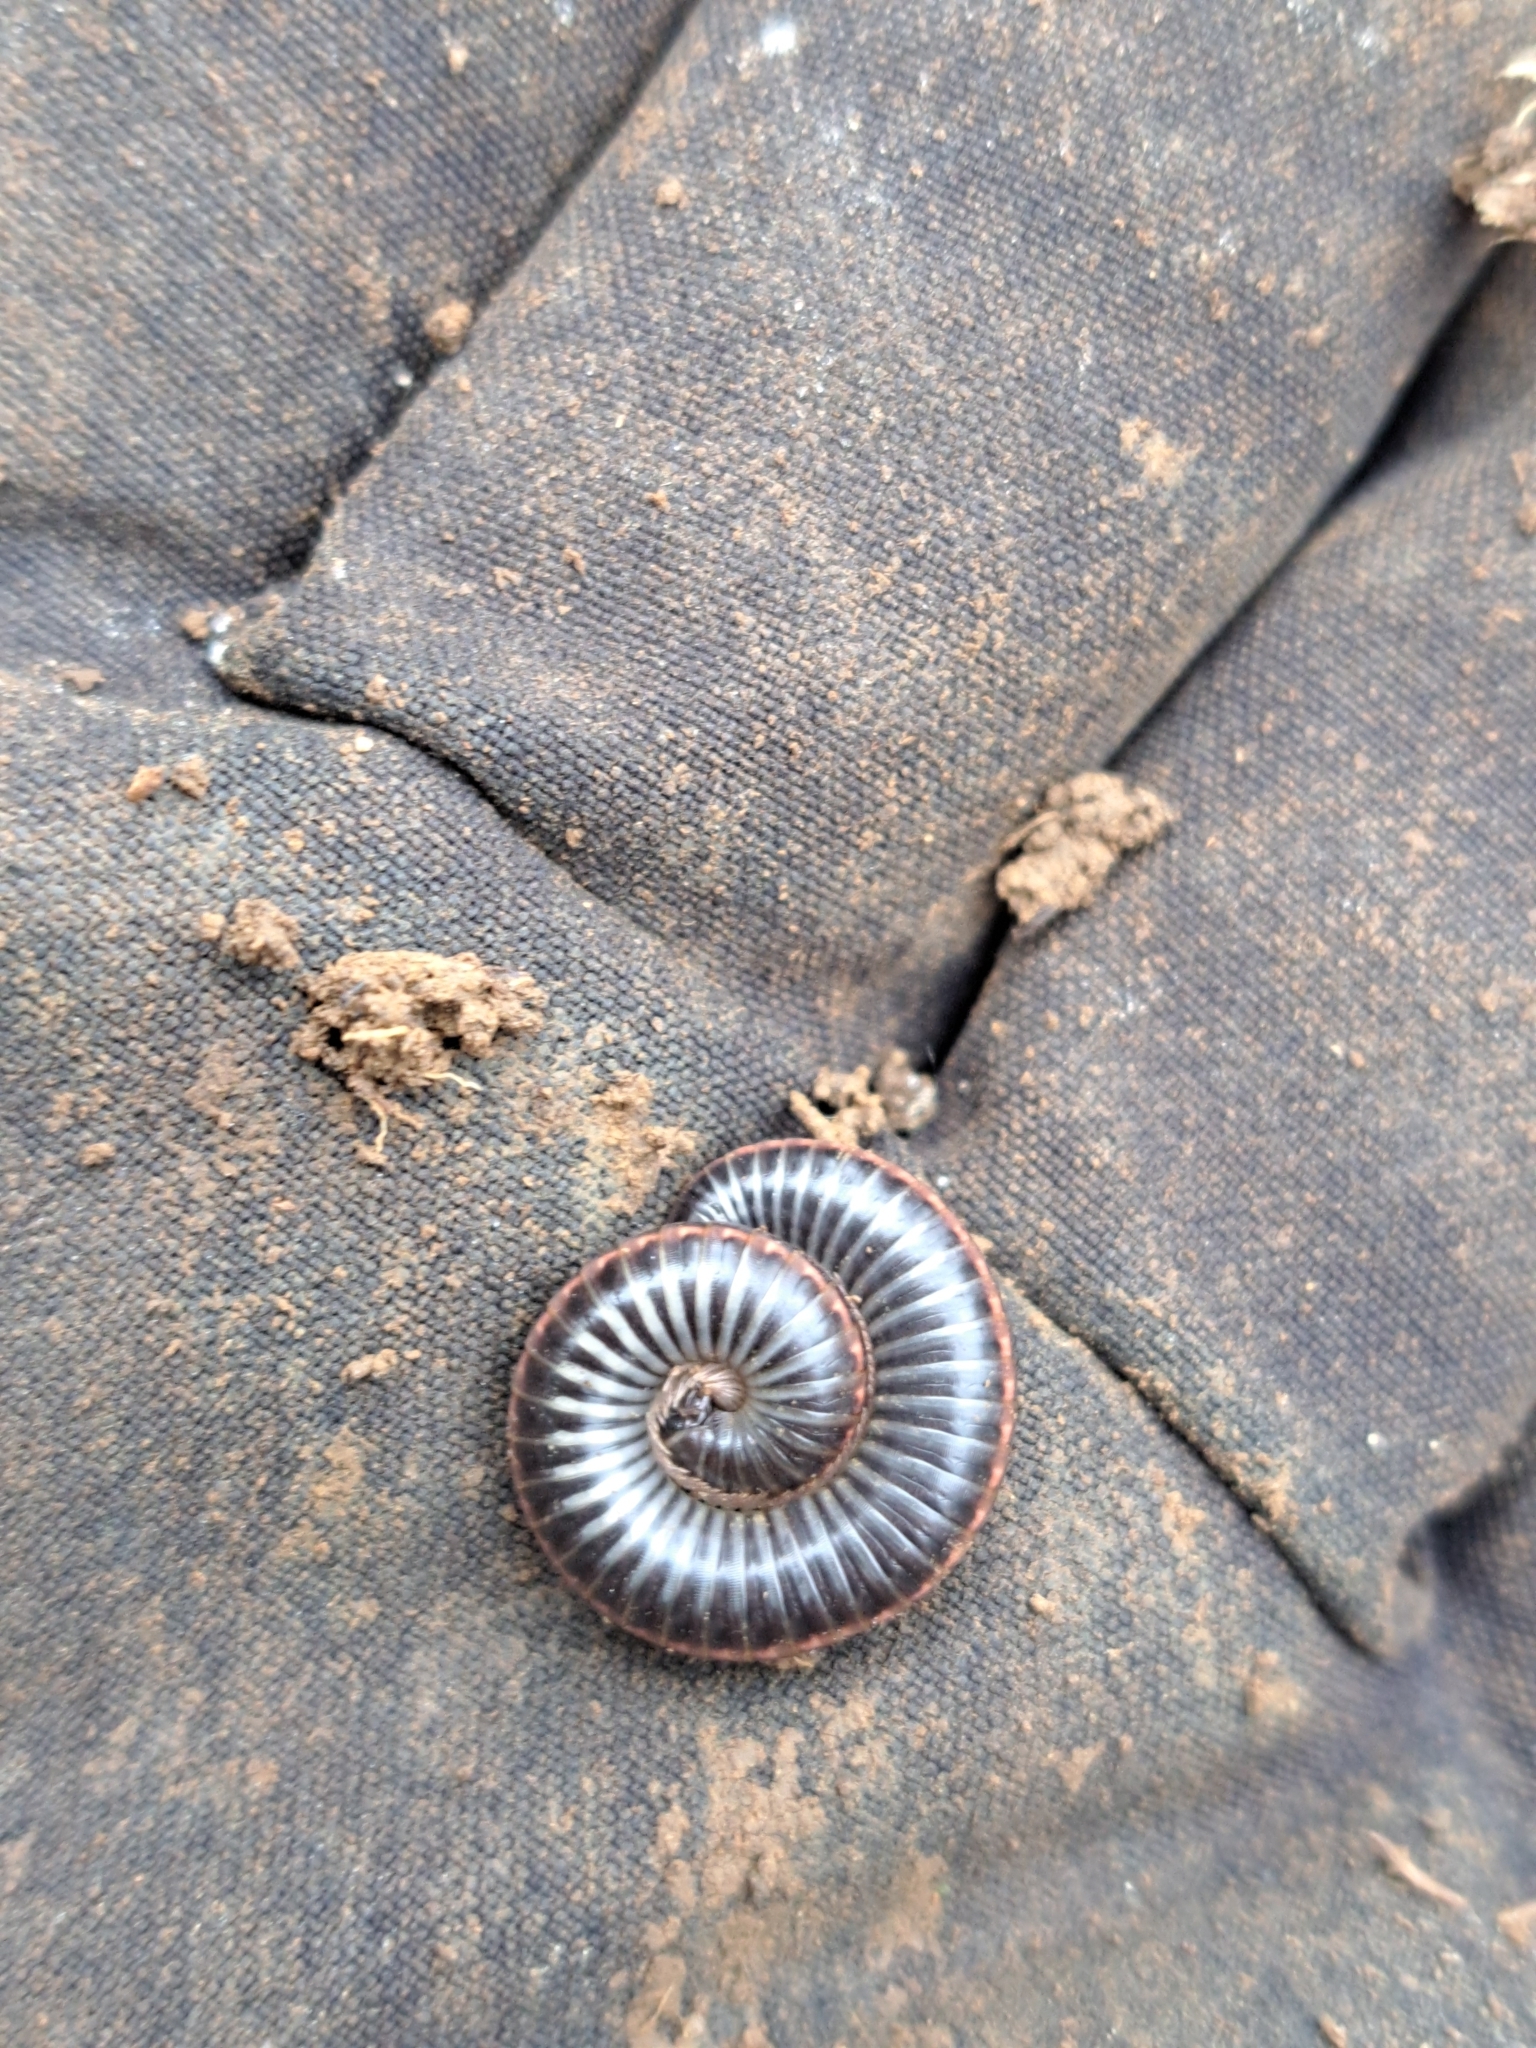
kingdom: Animalia
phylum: Arthropoda
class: Diplopoda
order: Julida
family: Julidae
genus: Ommatoiulus
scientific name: Ommatoiulus sabulosus
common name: Striped millipede
